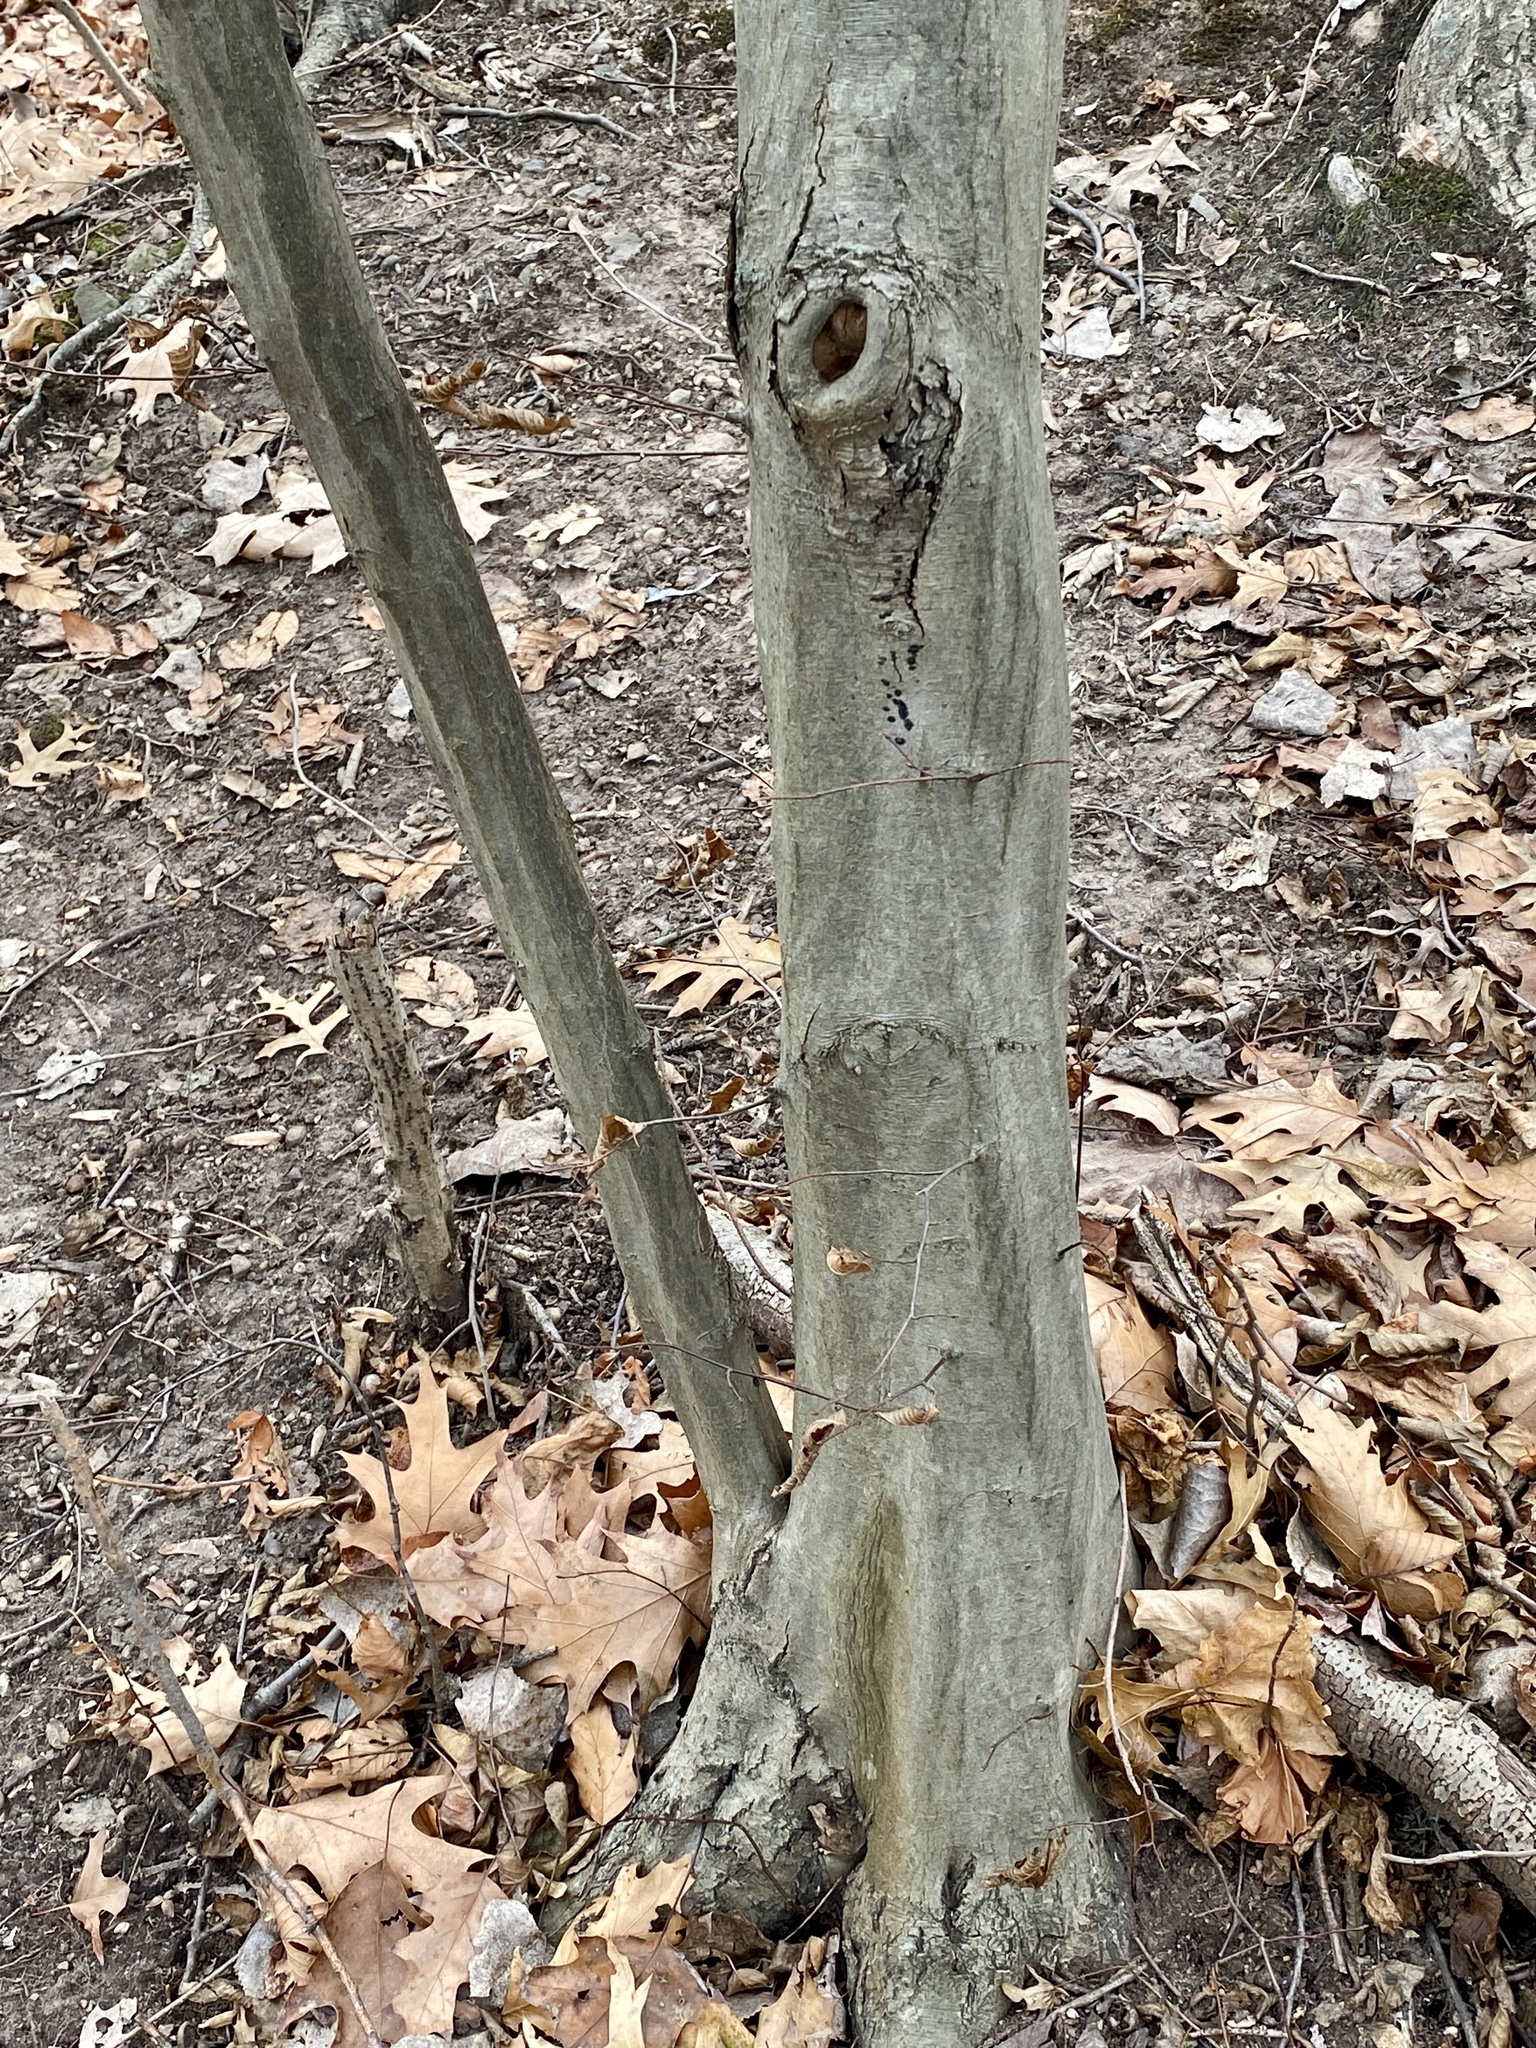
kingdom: Plantae
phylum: Tracheophyta
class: Magnoliopsida
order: Fagales
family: Betulaceae
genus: Carpinus
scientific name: Carpinus caroliniana
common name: American hornbeam
